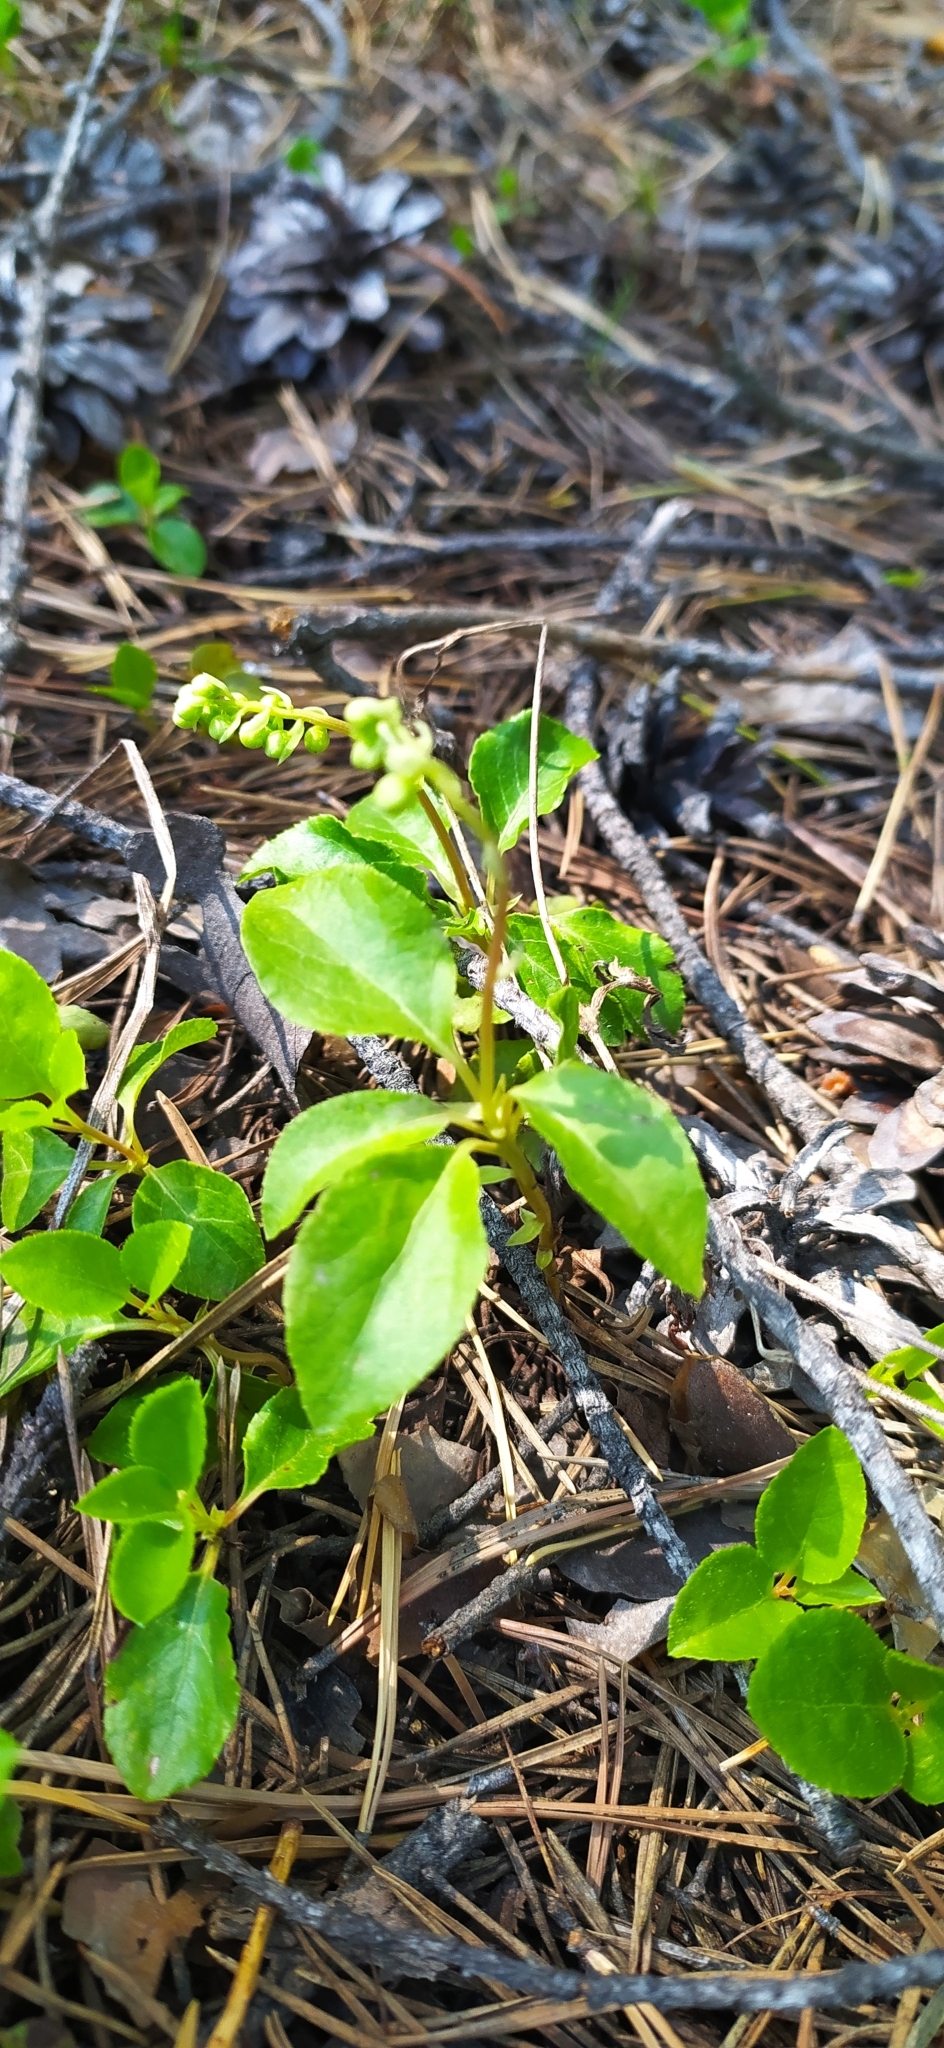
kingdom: Plantae
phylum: Tracheophyta
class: Magnoliopsida
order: Ericales
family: Ericaceae
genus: Orthilia
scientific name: Orthilia secunda
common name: One-sided orthilia
